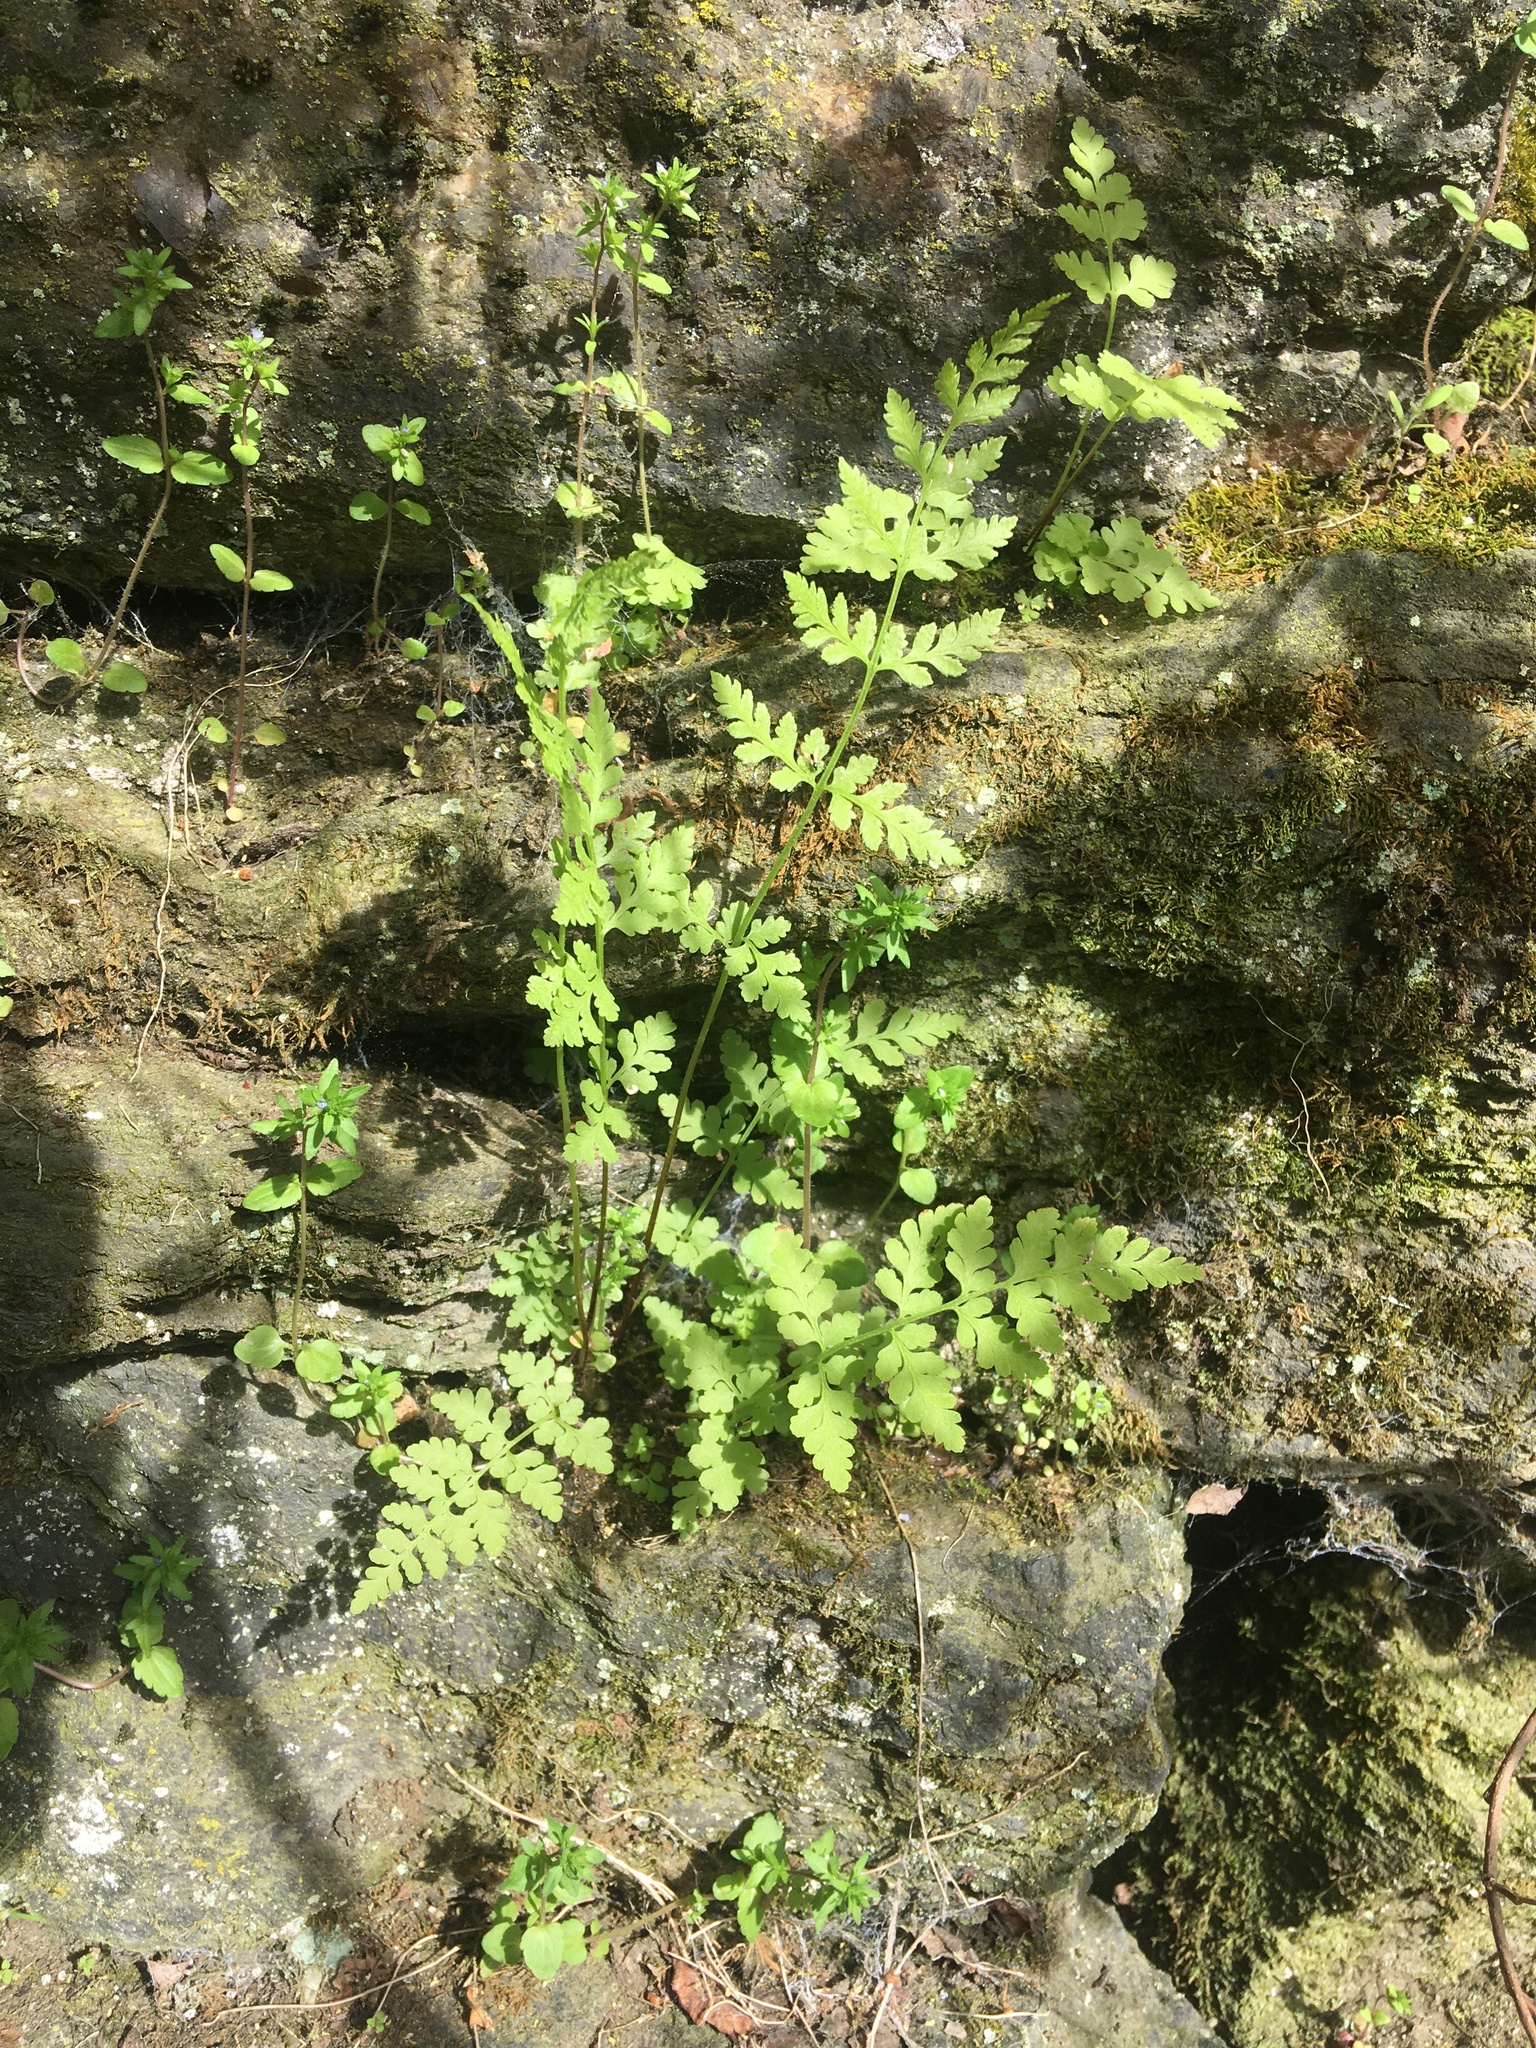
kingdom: Plantae
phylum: Tracheophyta
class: Polypodiopsida
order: Polypodiales
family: Cystopteridaceae
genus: Cystopteris
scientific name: Cystopteris fragilis
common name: Brittle bladder fern
